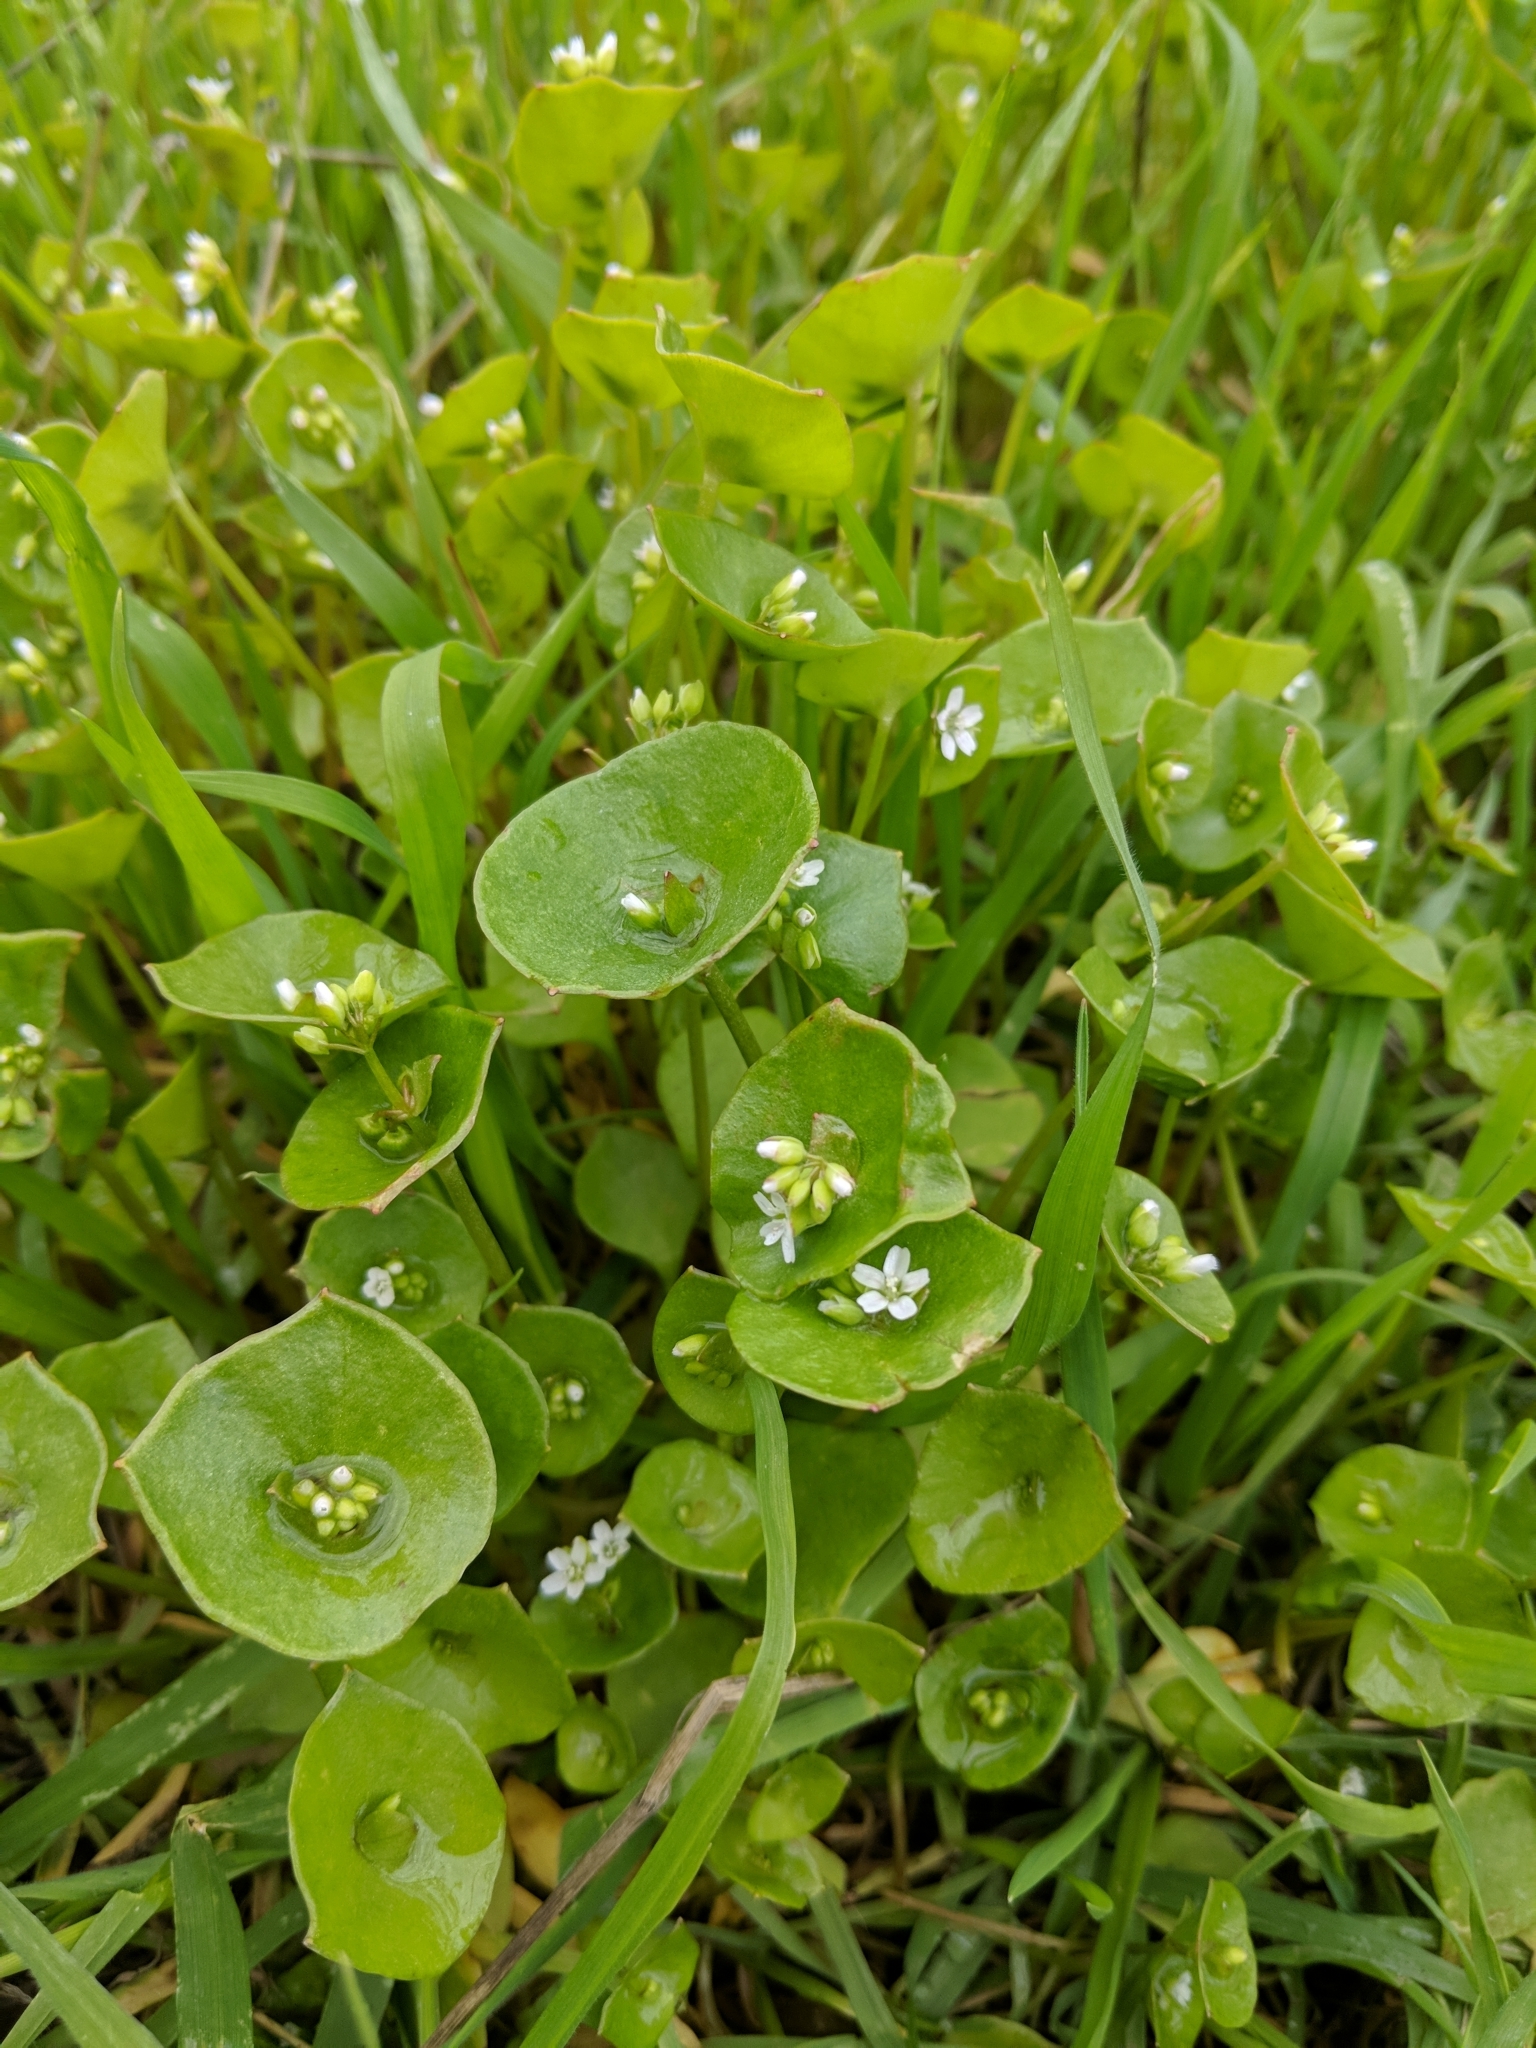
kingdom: Plantae
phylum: Tracheophyta
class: Magnoliopsida
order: Caryophyllales
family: Montiaceae
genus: Claytonia
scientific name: Claytonia perfoliata
